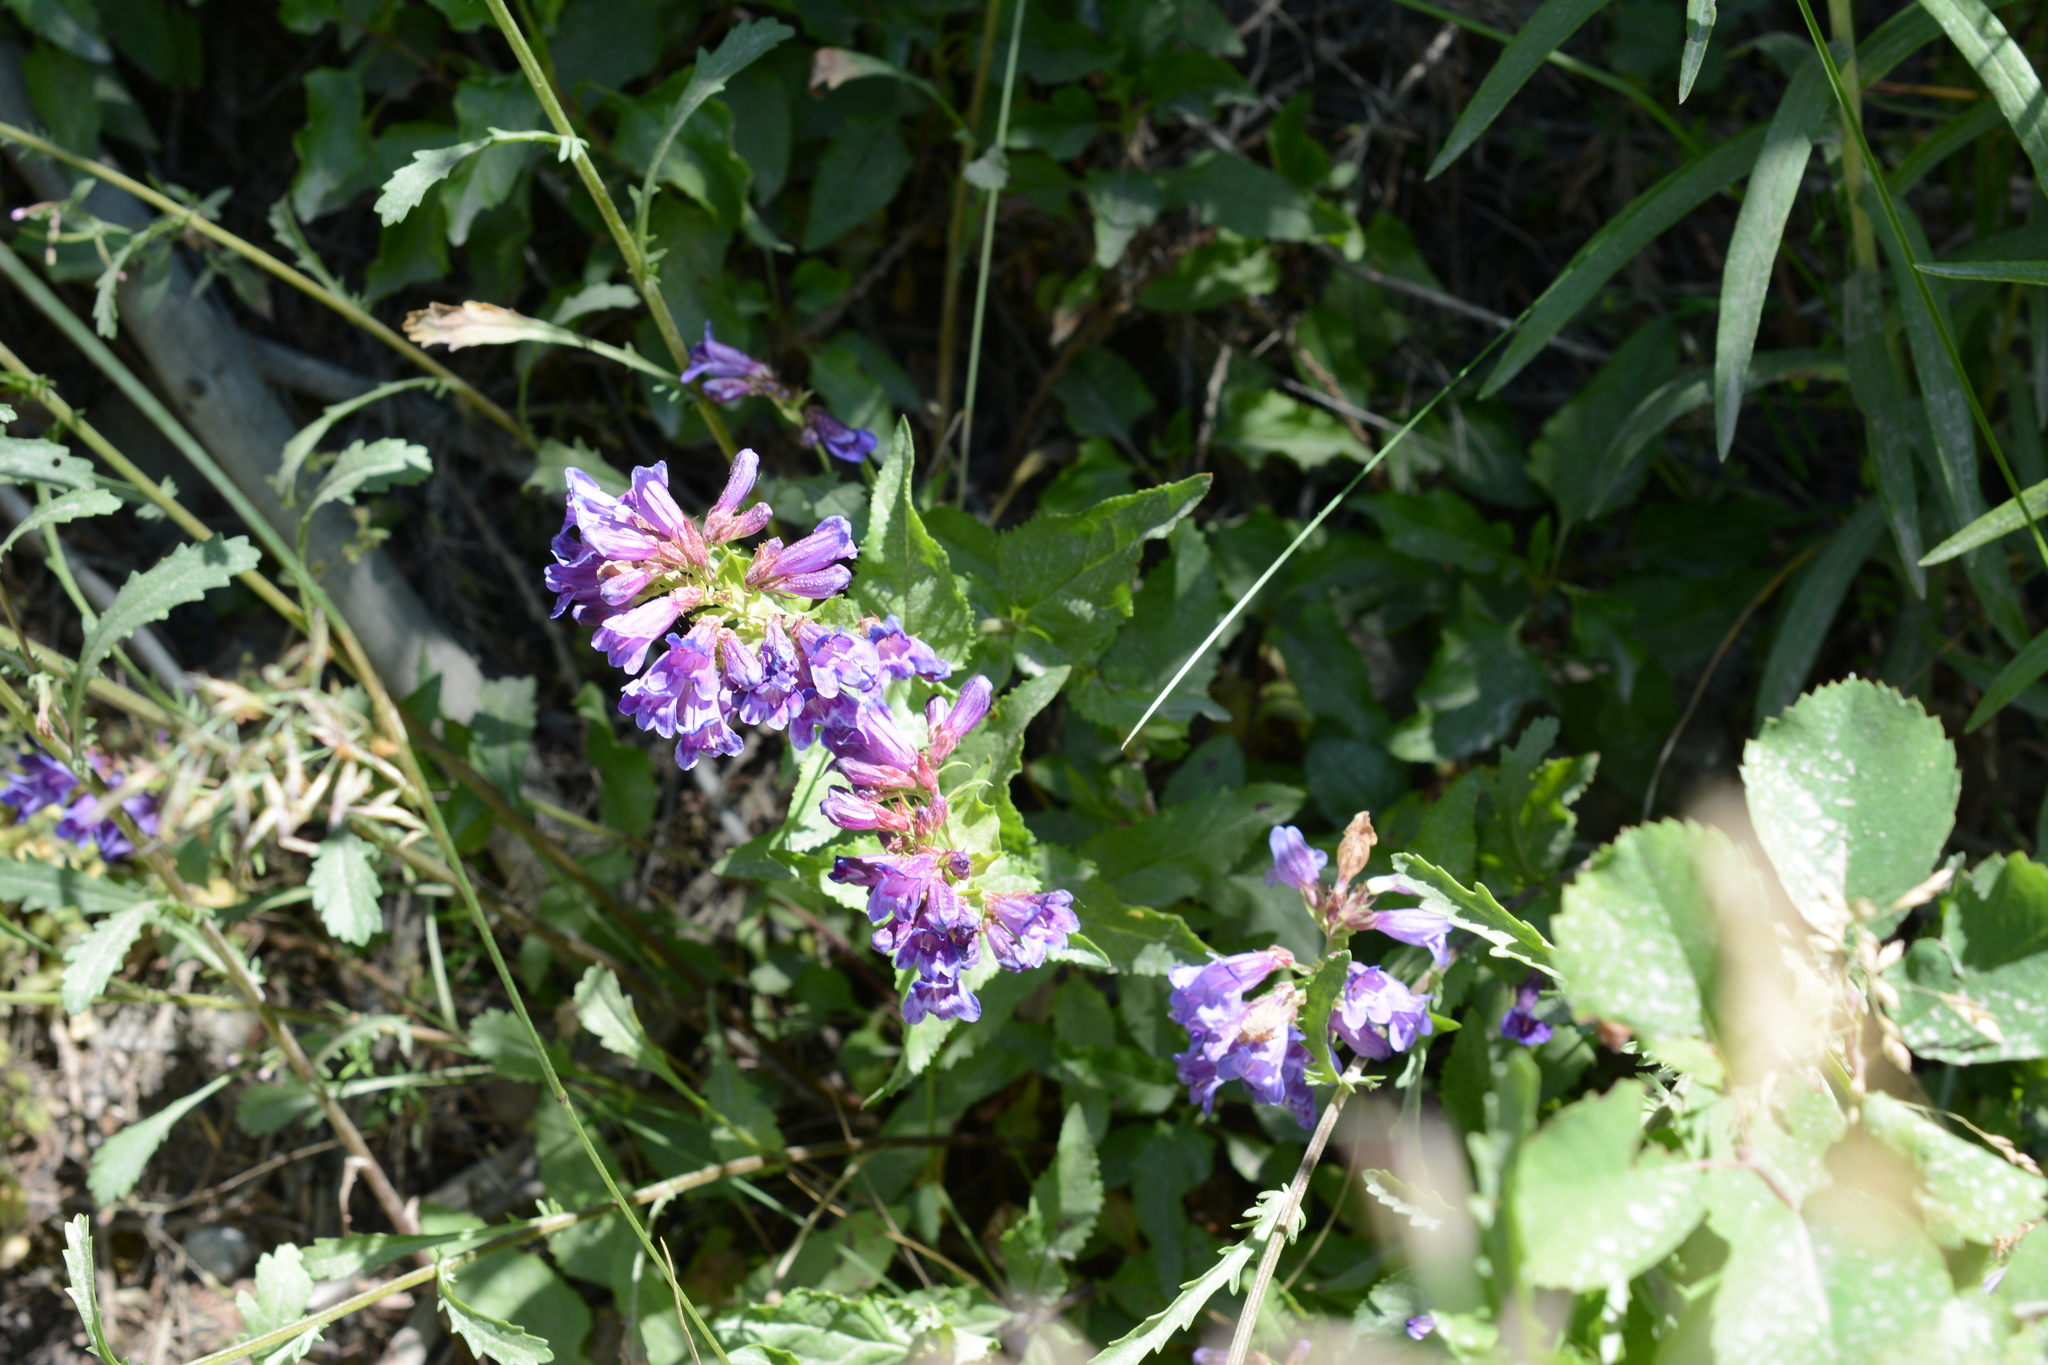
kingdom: Plantae
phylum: Tracheophyta
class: Magnoliopsida
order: Lamiales
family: Plantaginaceae
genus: Penstemon
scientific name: Penstemon serrulatus
